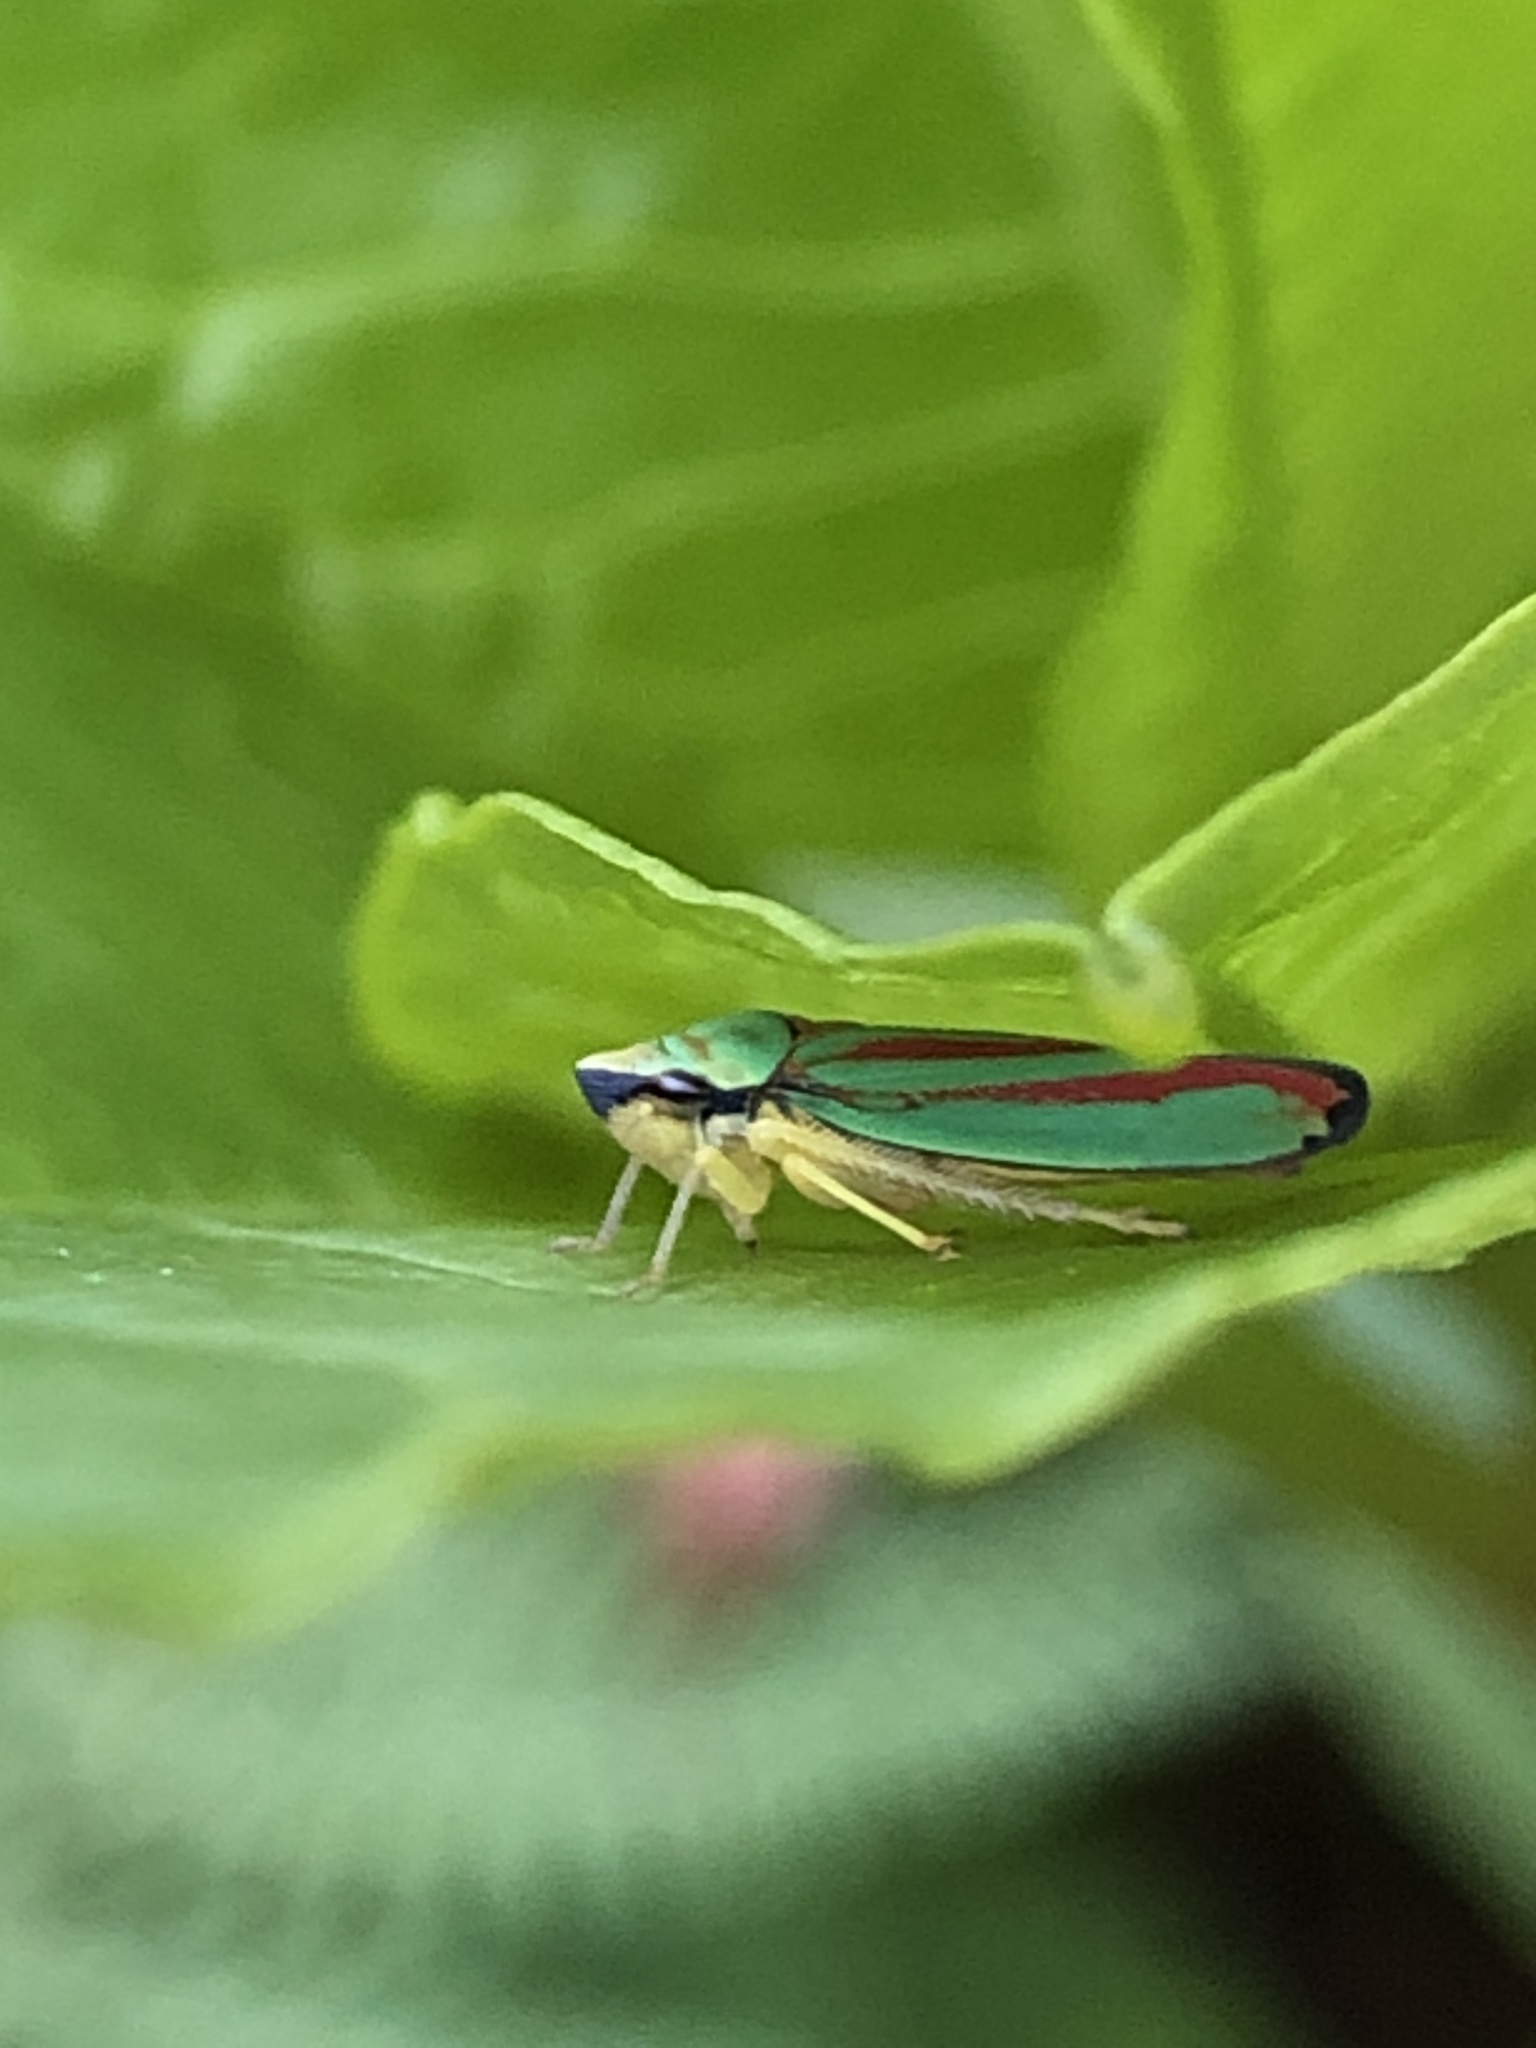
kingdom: Animalia
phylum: Arthropoda
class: Insecta
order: Hemiptera
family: Cicadellidae
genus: Graphocephala
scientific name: Graphocephala fennahi
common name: Rhododendron leafhopper
